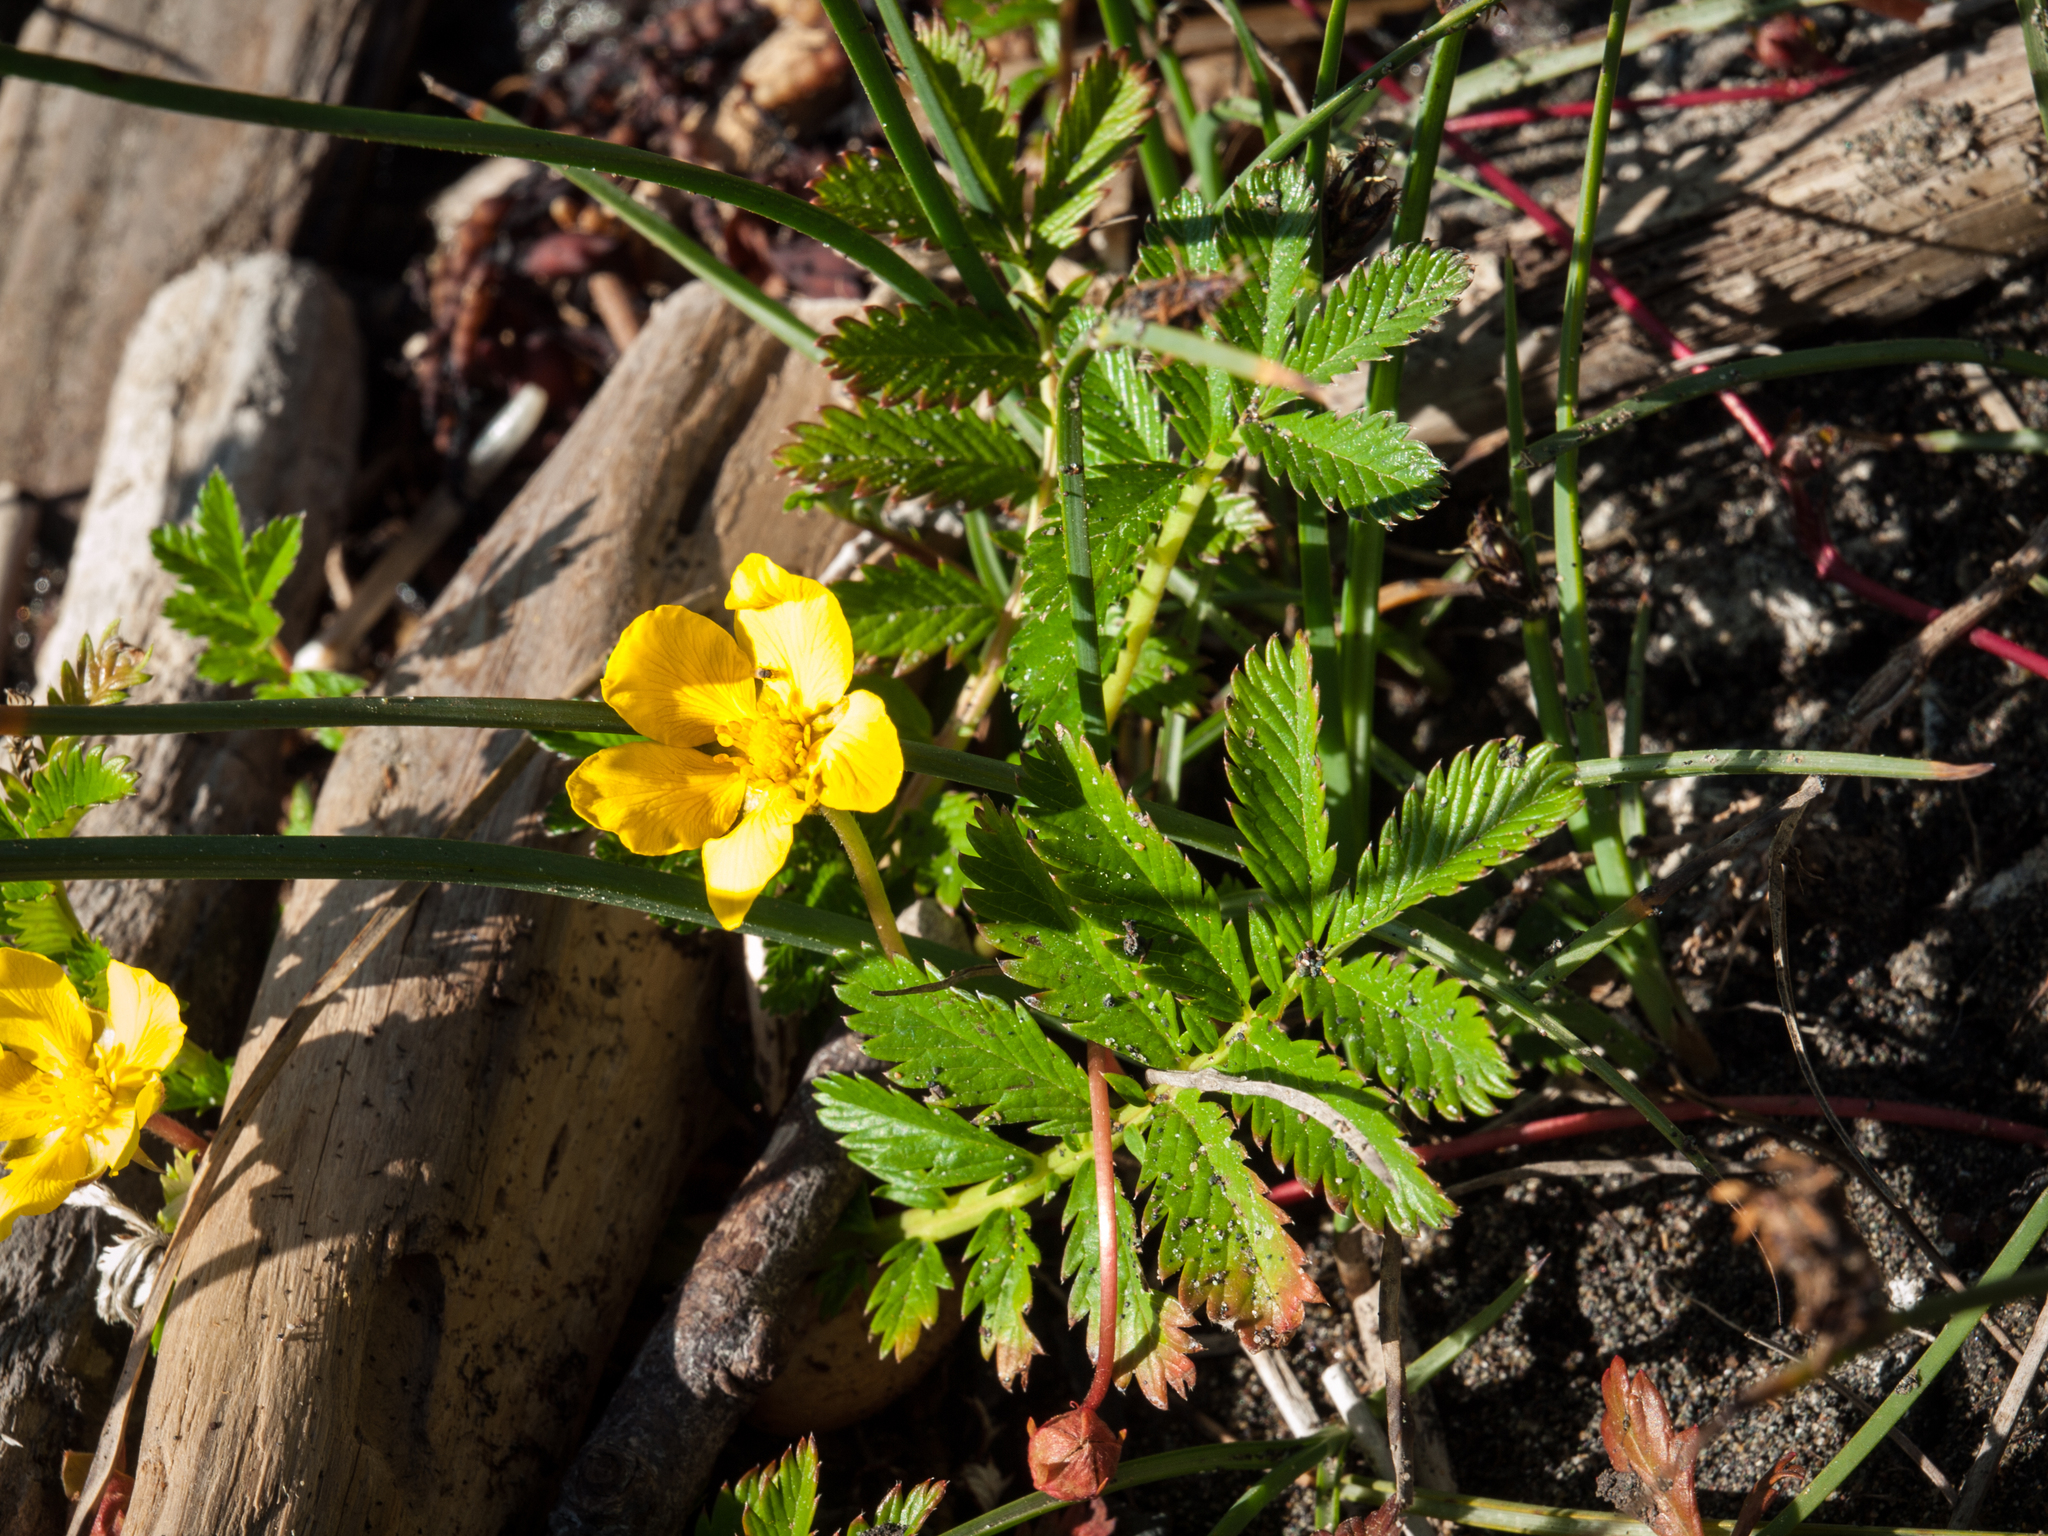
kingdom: Plantae
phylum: Tracheophyta
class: Magnoliopsida
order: Rosales
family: Rosaceae
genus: Argentina
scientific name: Argentina anserina
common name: Common silverweed
